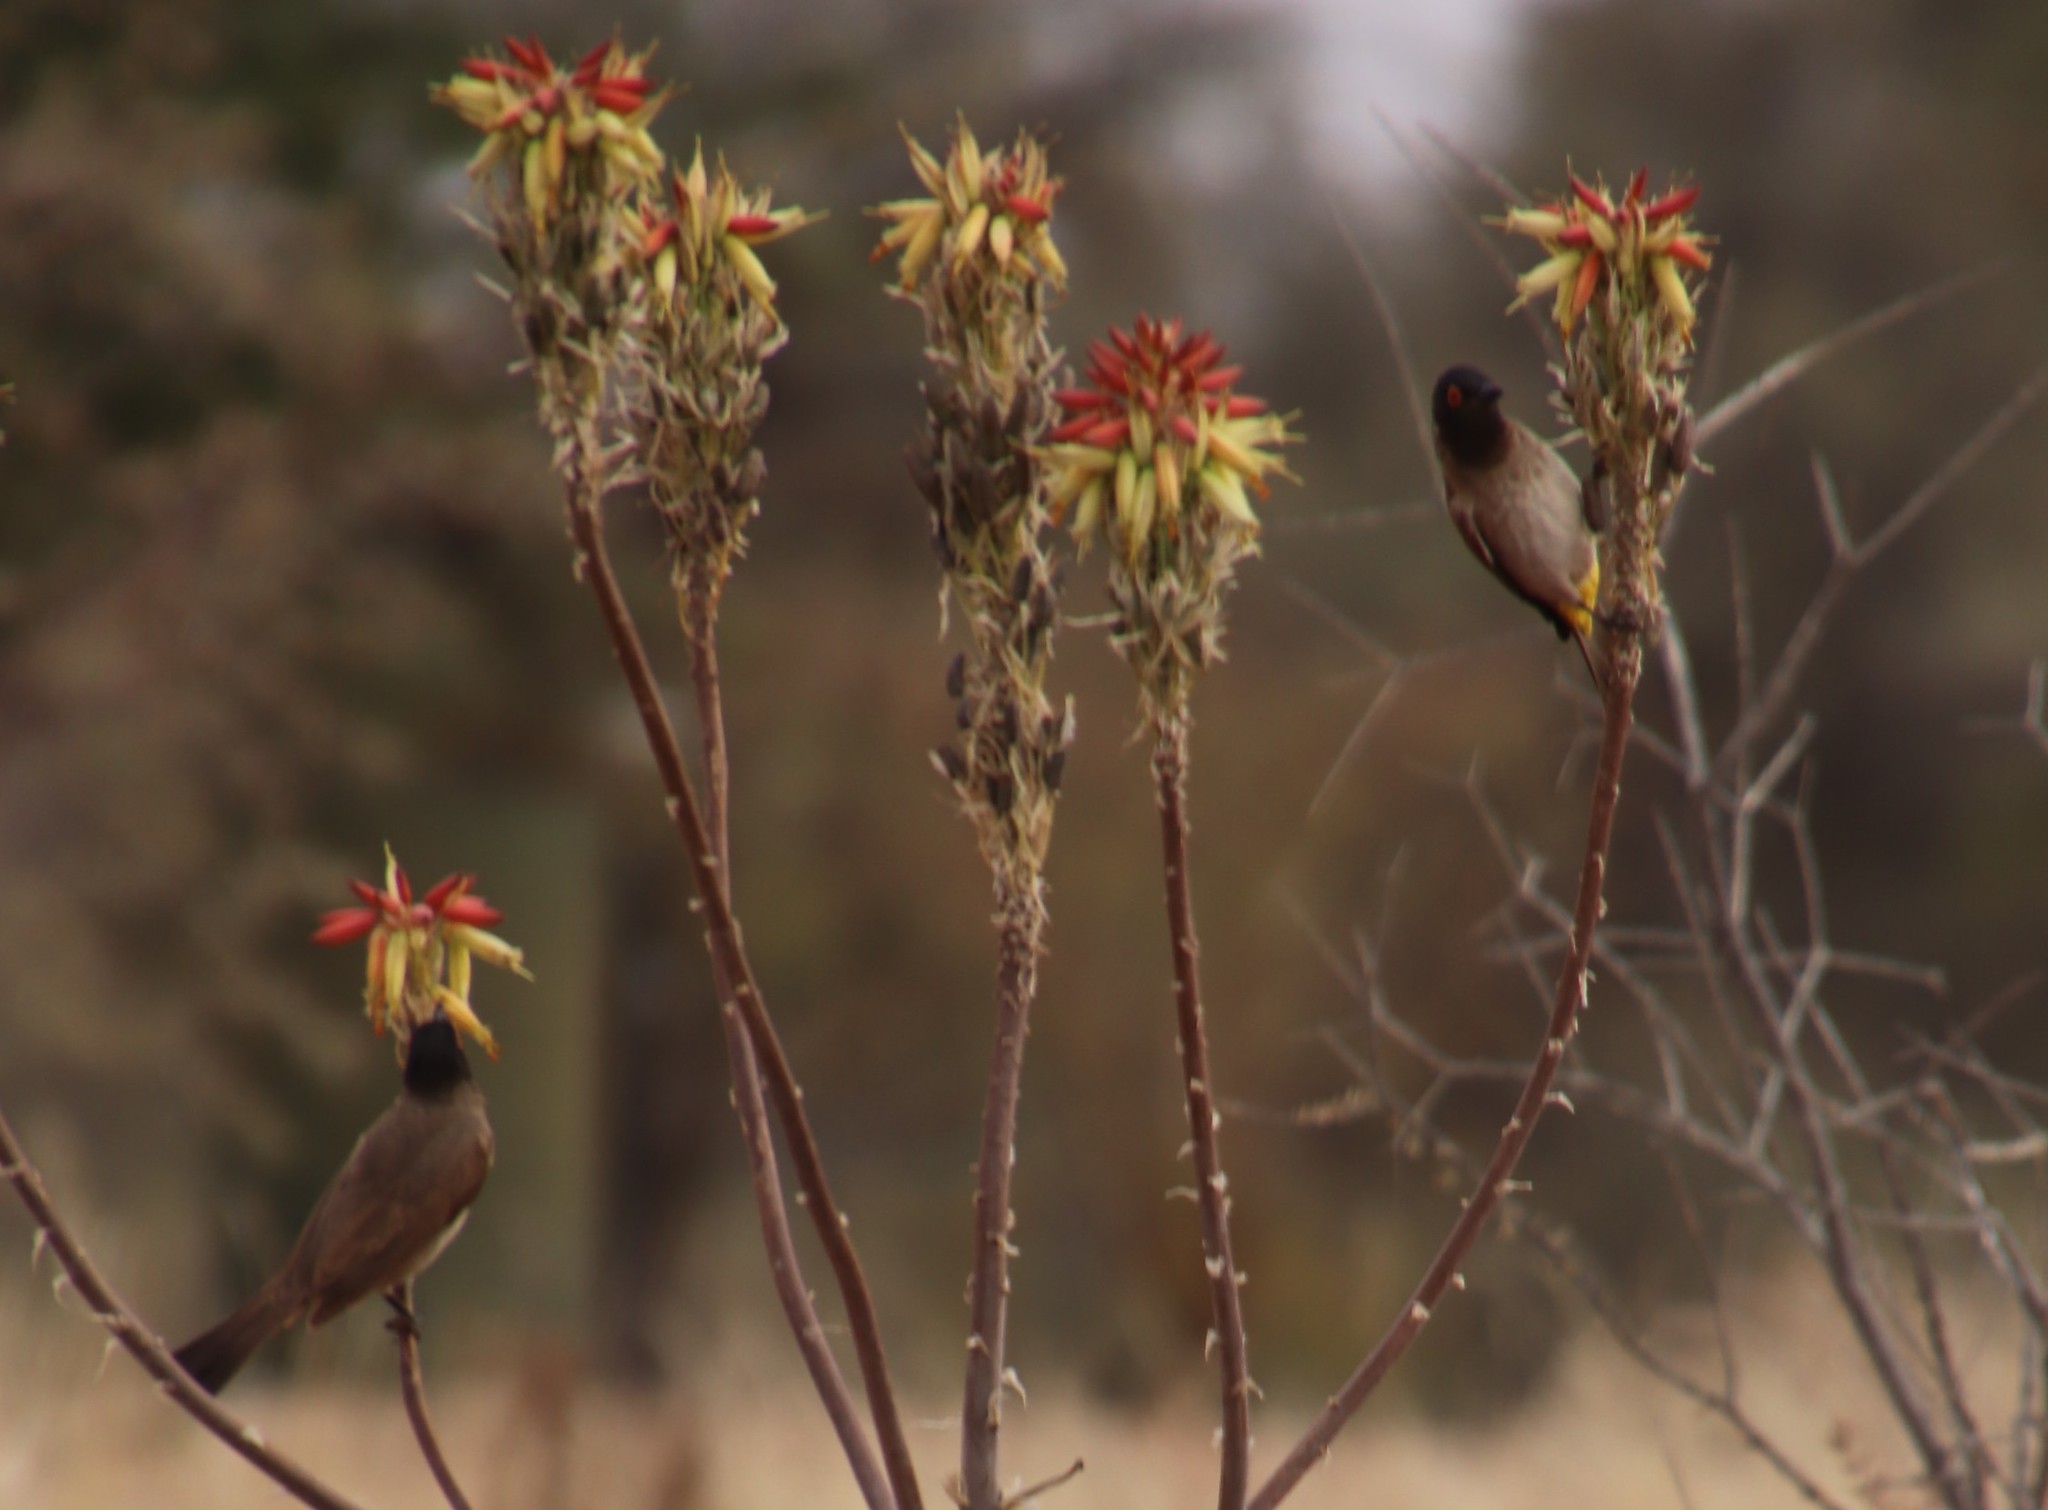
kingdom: Animalia
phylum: Chordata
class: Aves
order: Passeriformes
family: Pycnonotidae
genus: Pycnonotus
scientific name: Pycnonotus nigricans
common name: African red-eyed bulbul
